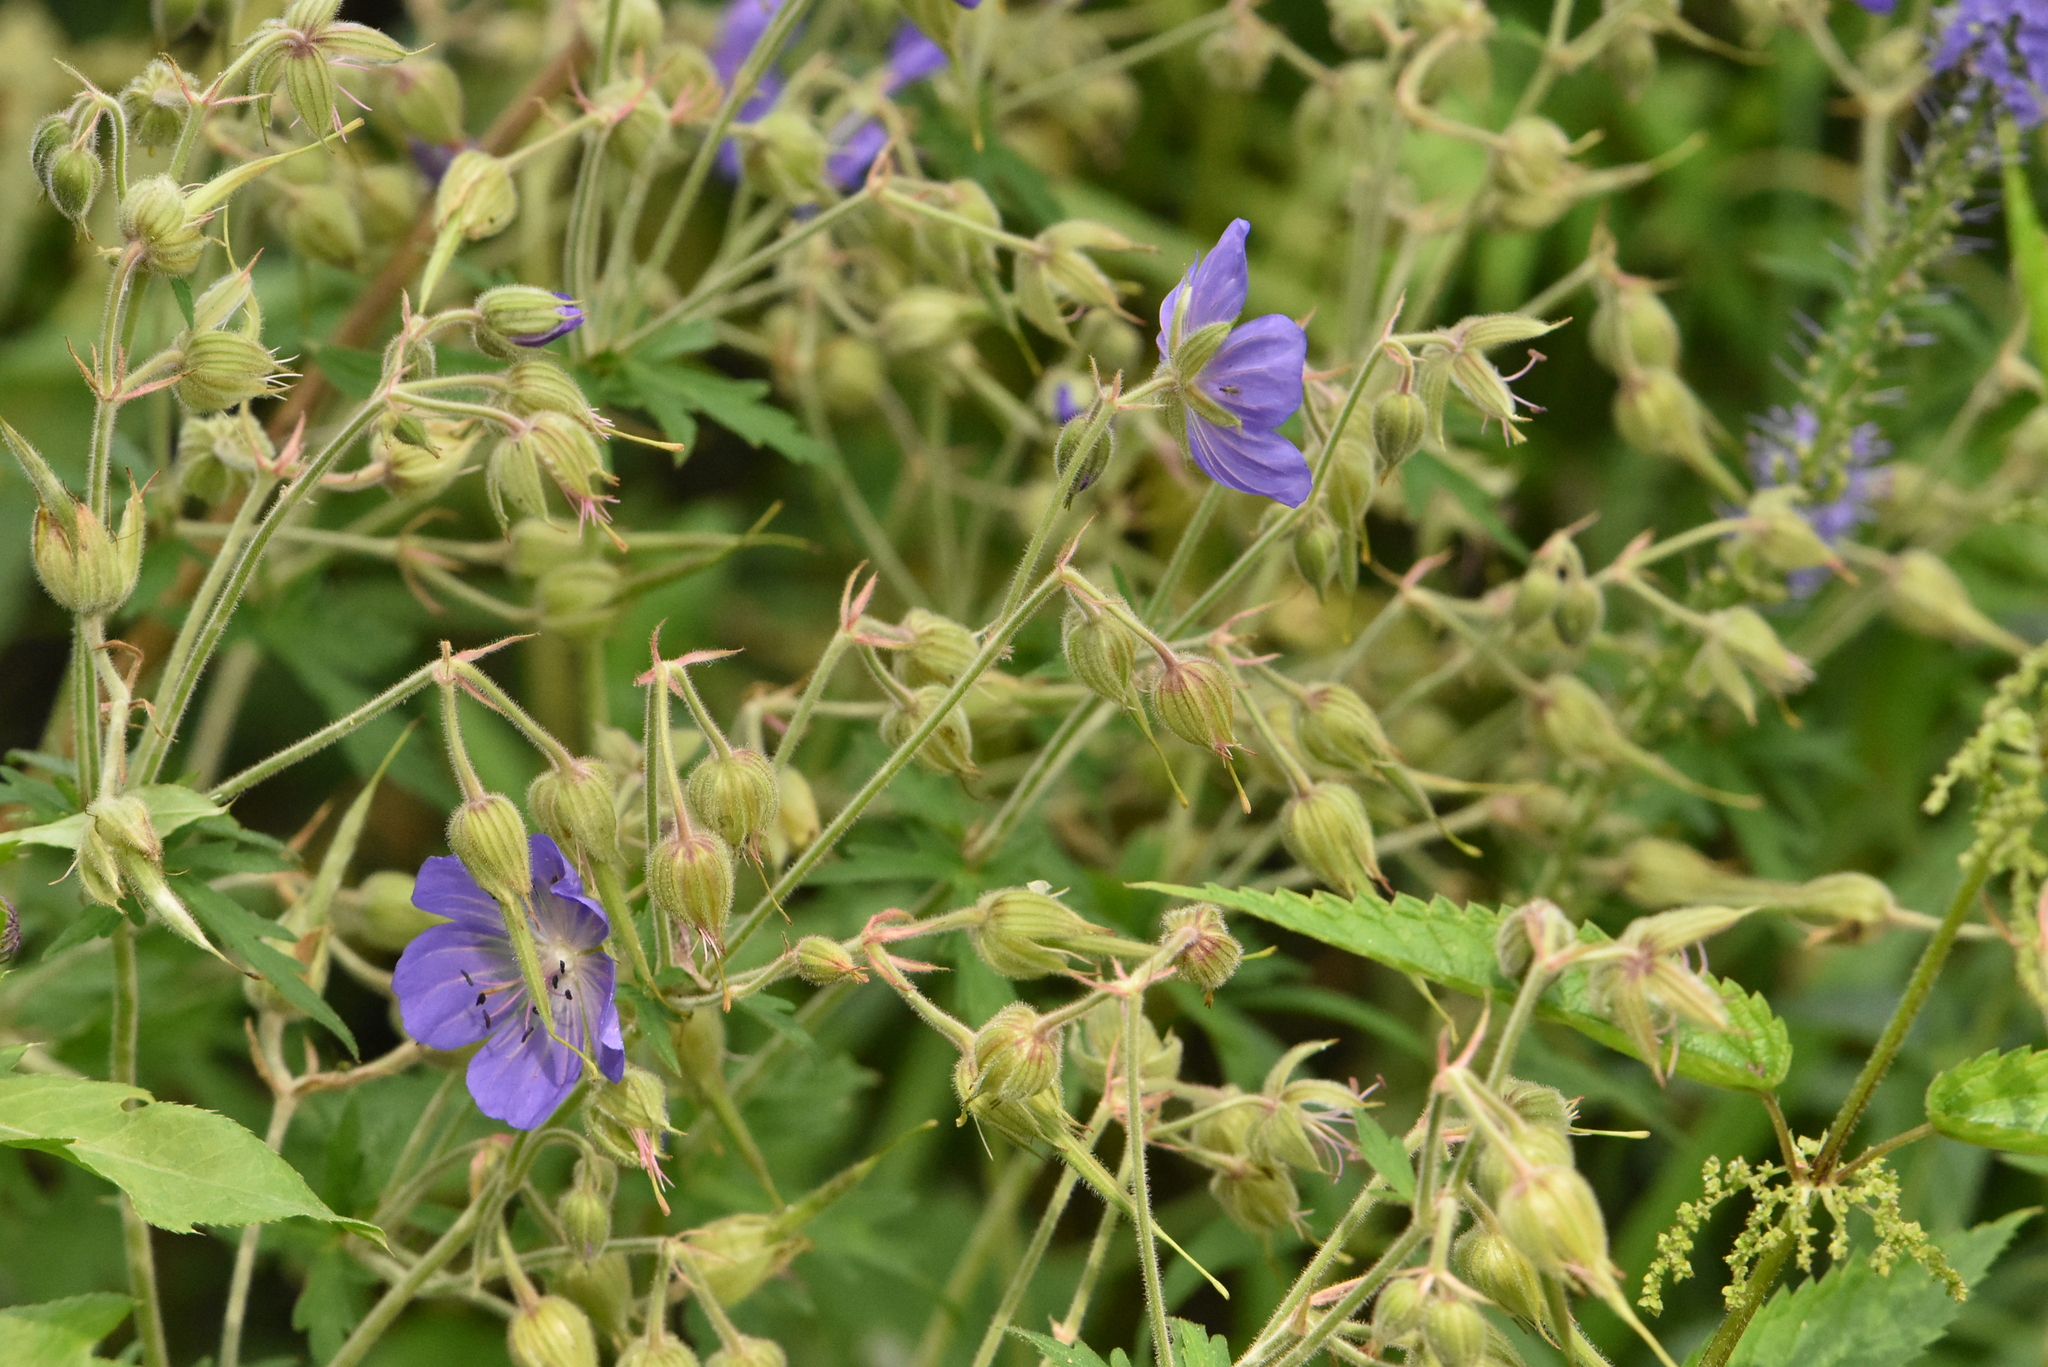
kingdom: Plantae
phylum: Tracheophyta
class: Magnoliopsida
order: Geraniales
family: Geraniaceae
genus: Geranium
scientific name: Geranium pratense
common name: Meadow crane's-bill
